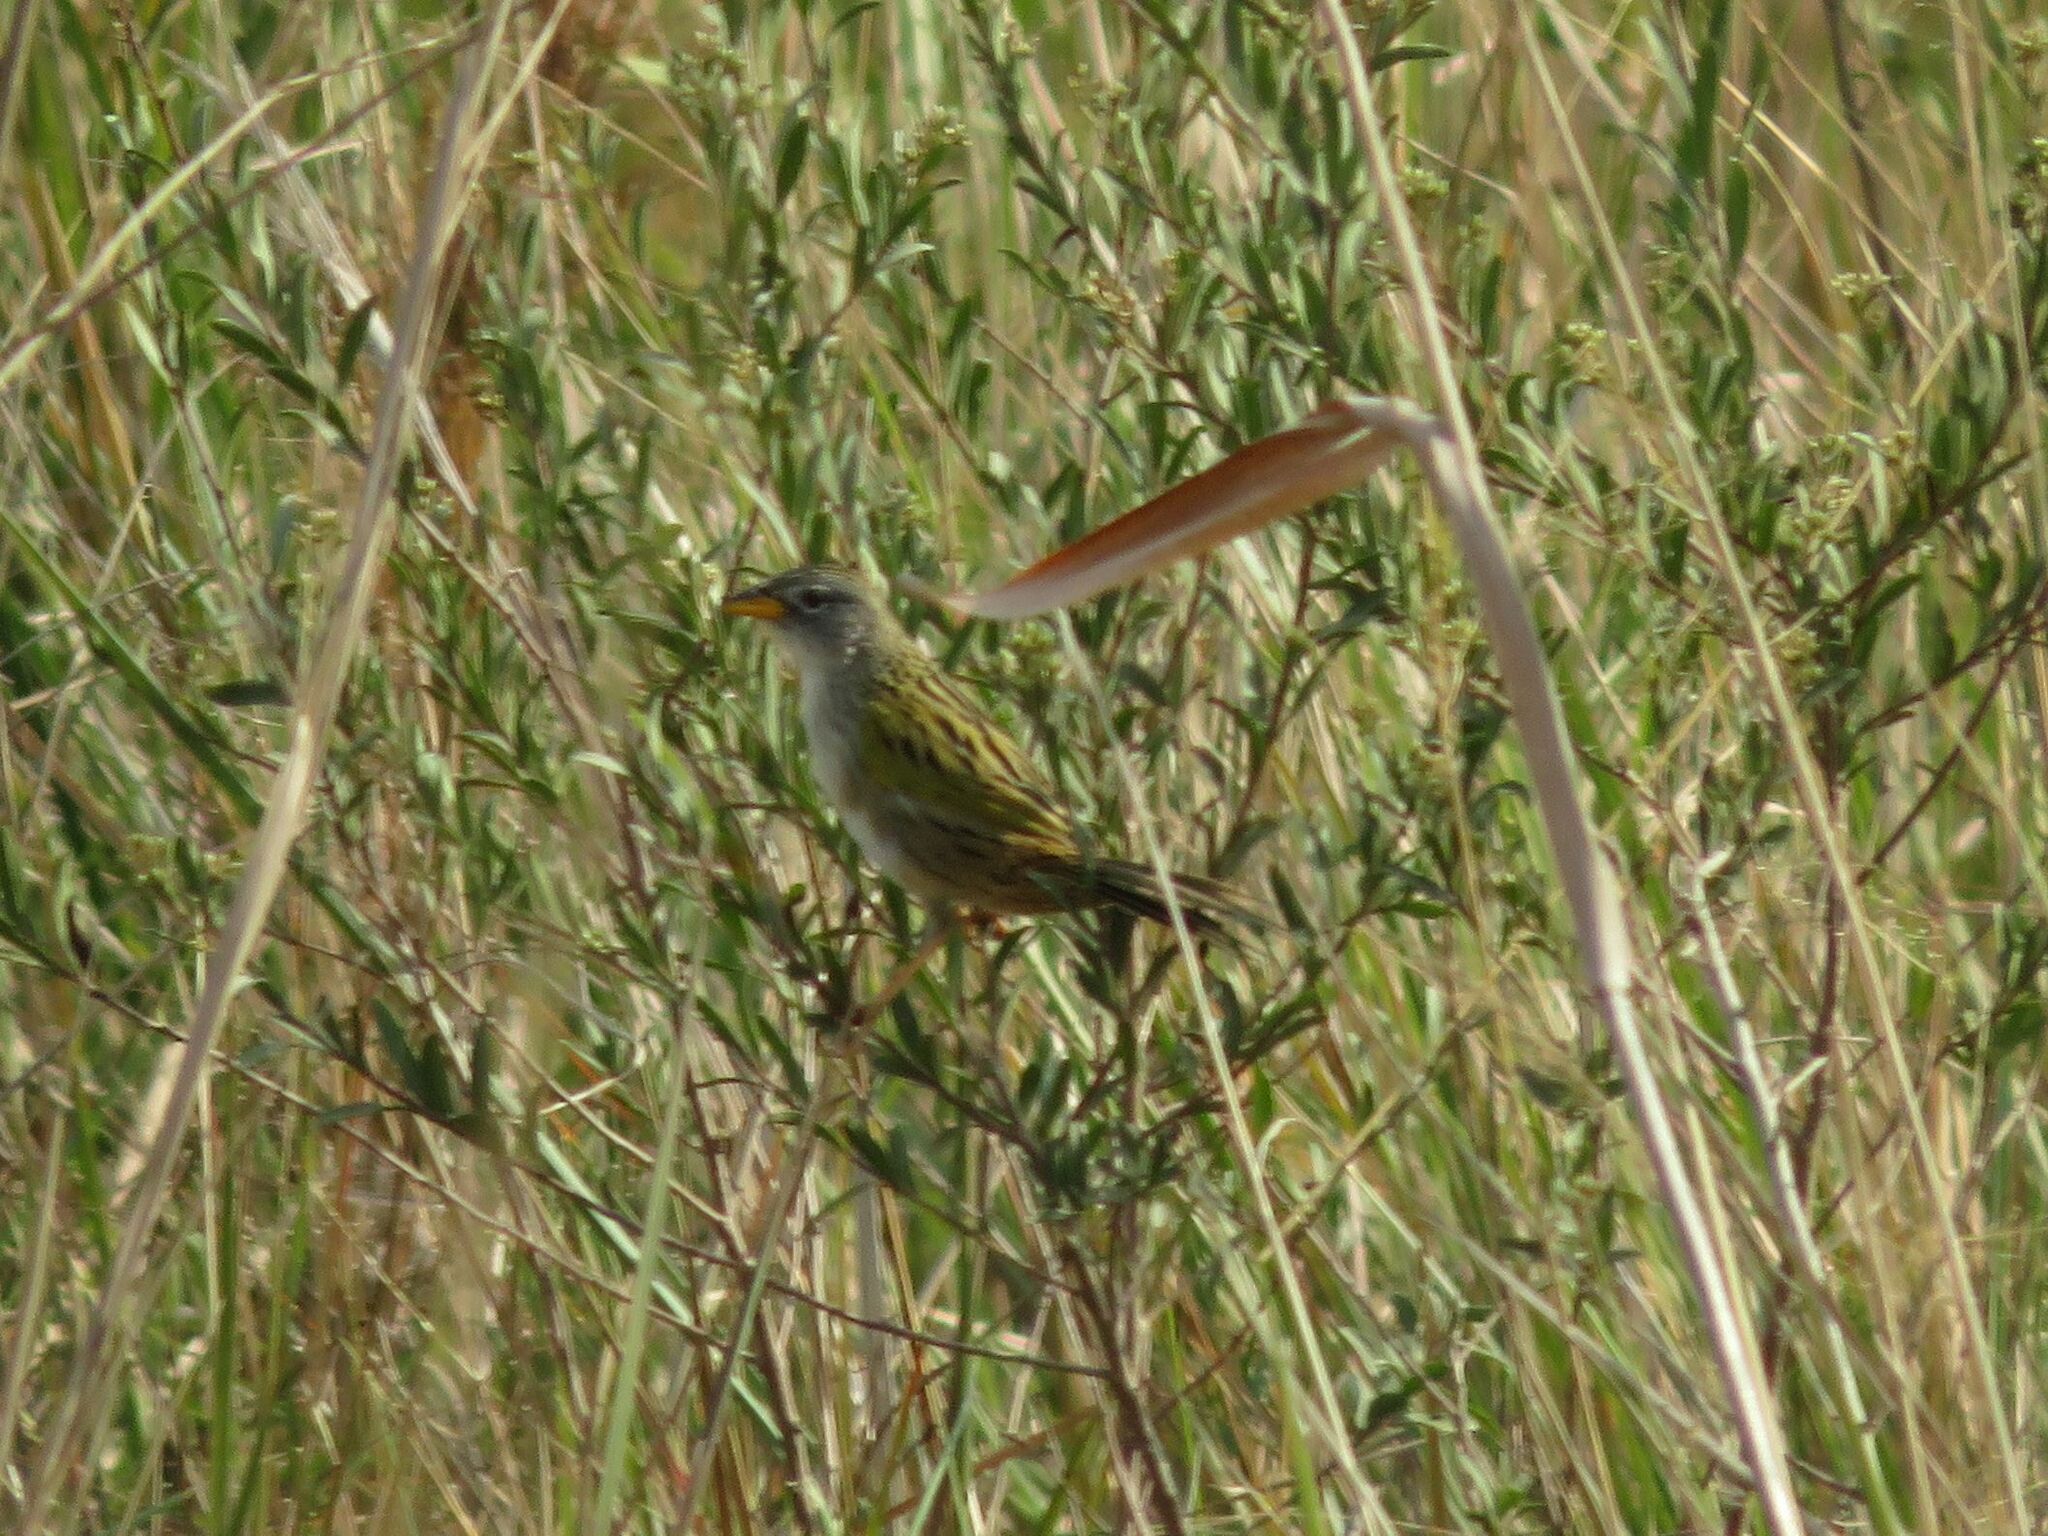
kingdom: Animalia
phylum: Chordata
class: Aves
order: Passeriformes
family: Thraupidae
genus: Emberizoides
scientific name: Emberizoides ypiranganus
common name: Lesser grass finch
